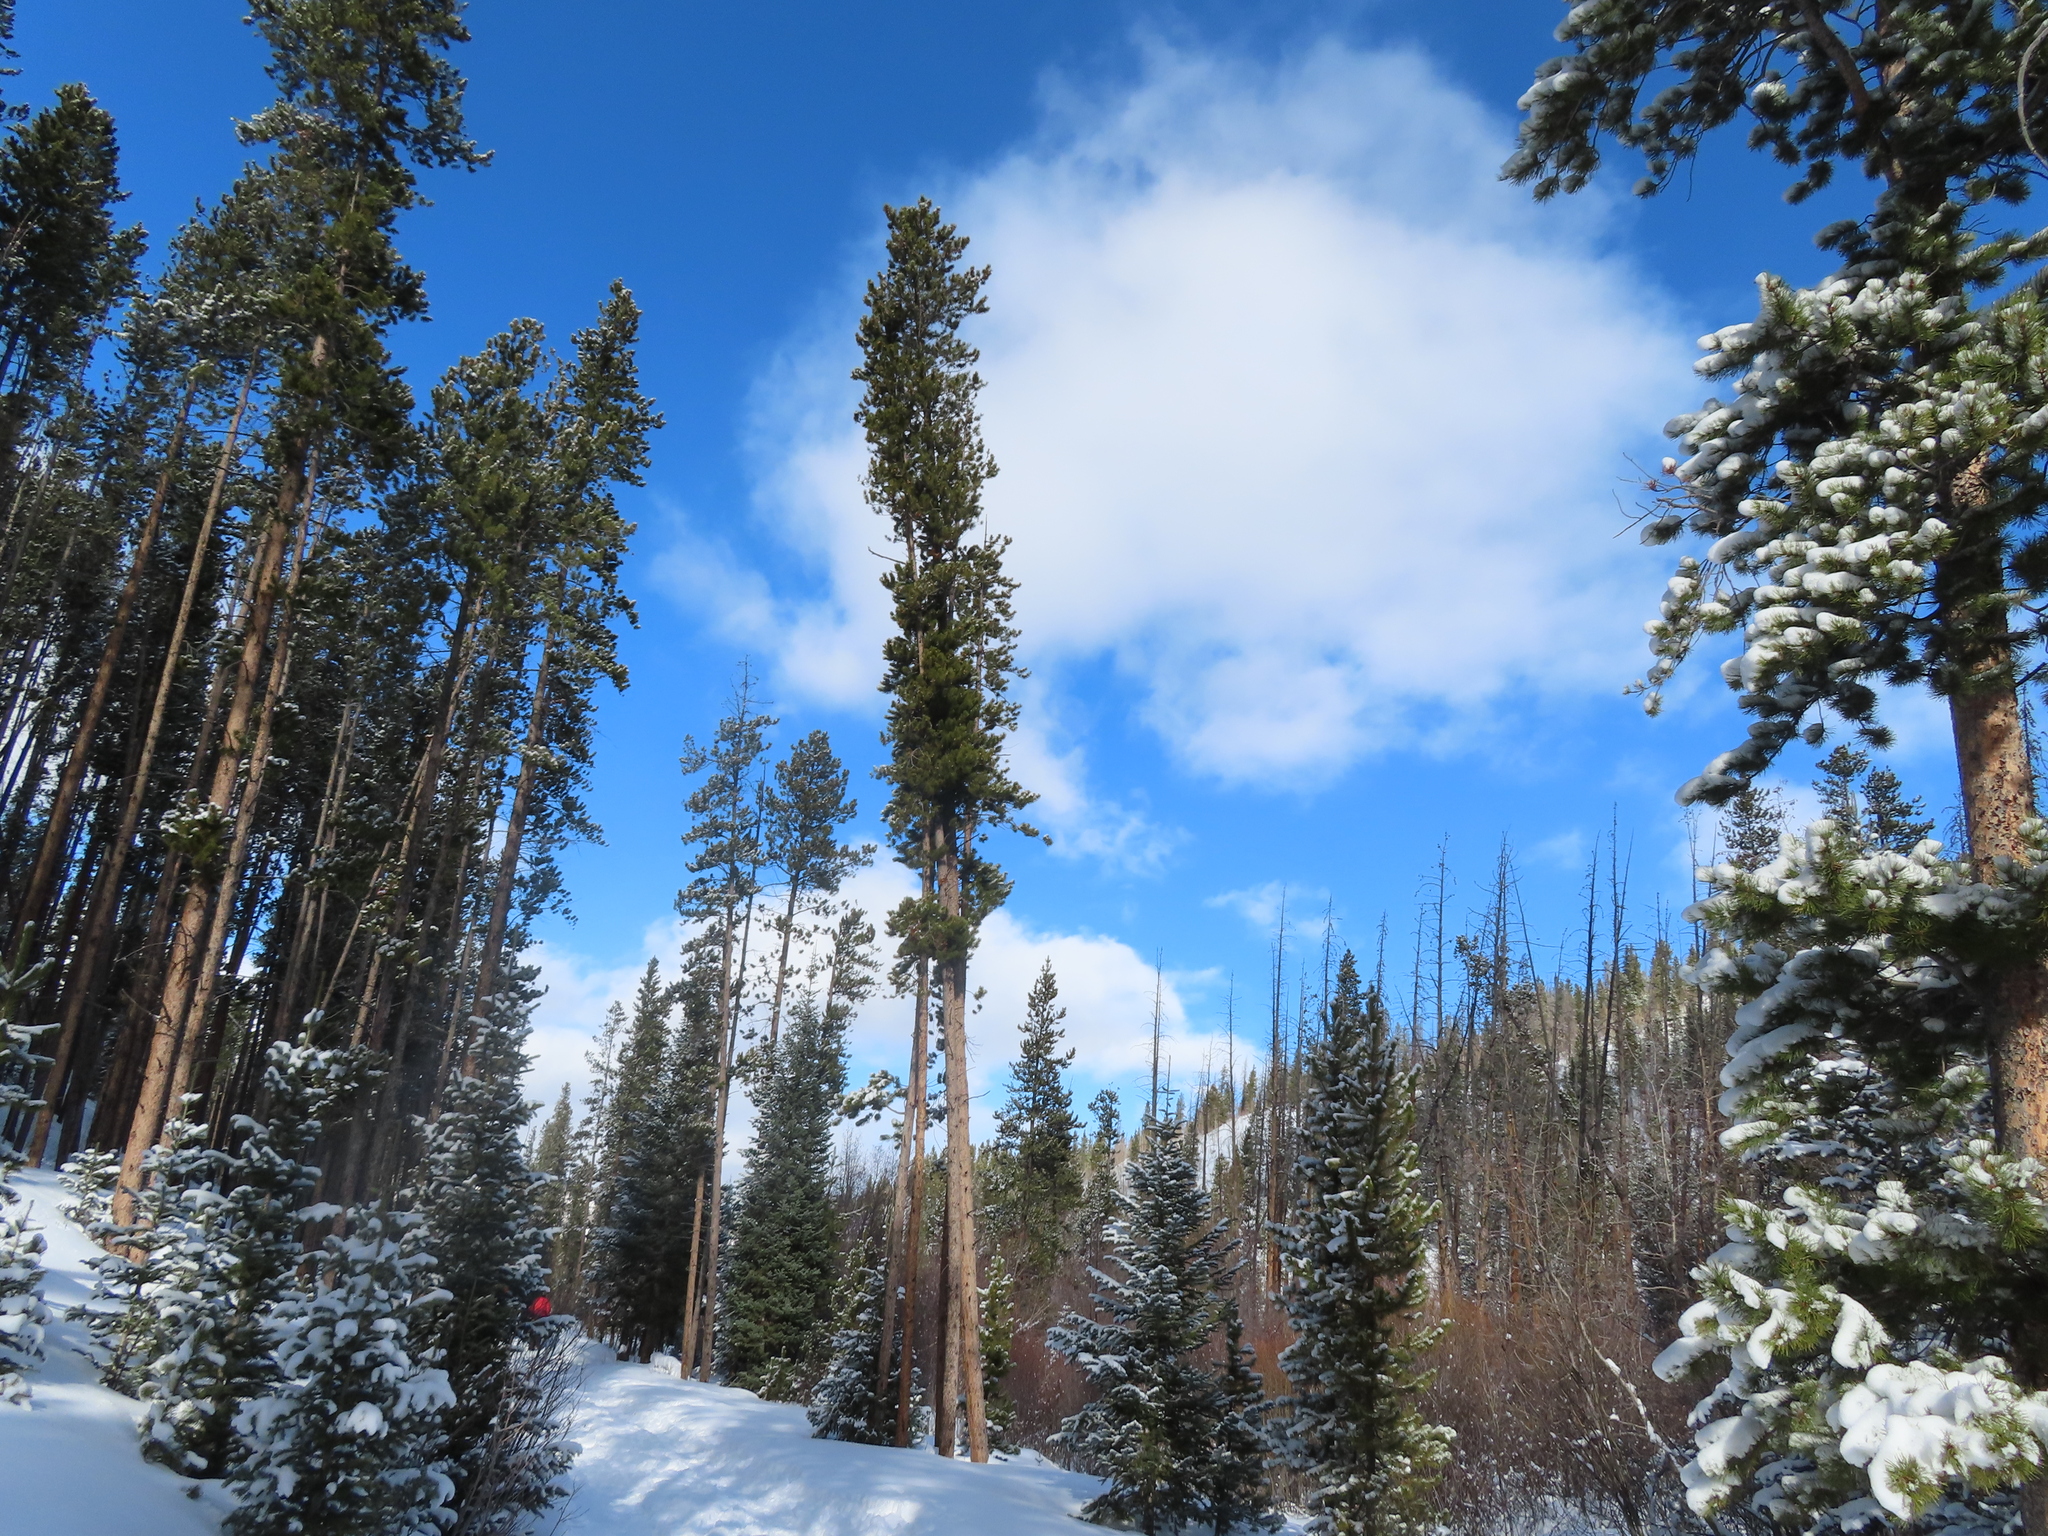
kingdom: Plantae
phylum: Tracheophyta
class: Pinopsida
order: Pinales
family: Pinaceae
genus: Pinus
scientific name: Pinus contorta
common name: Lodgepole pine
